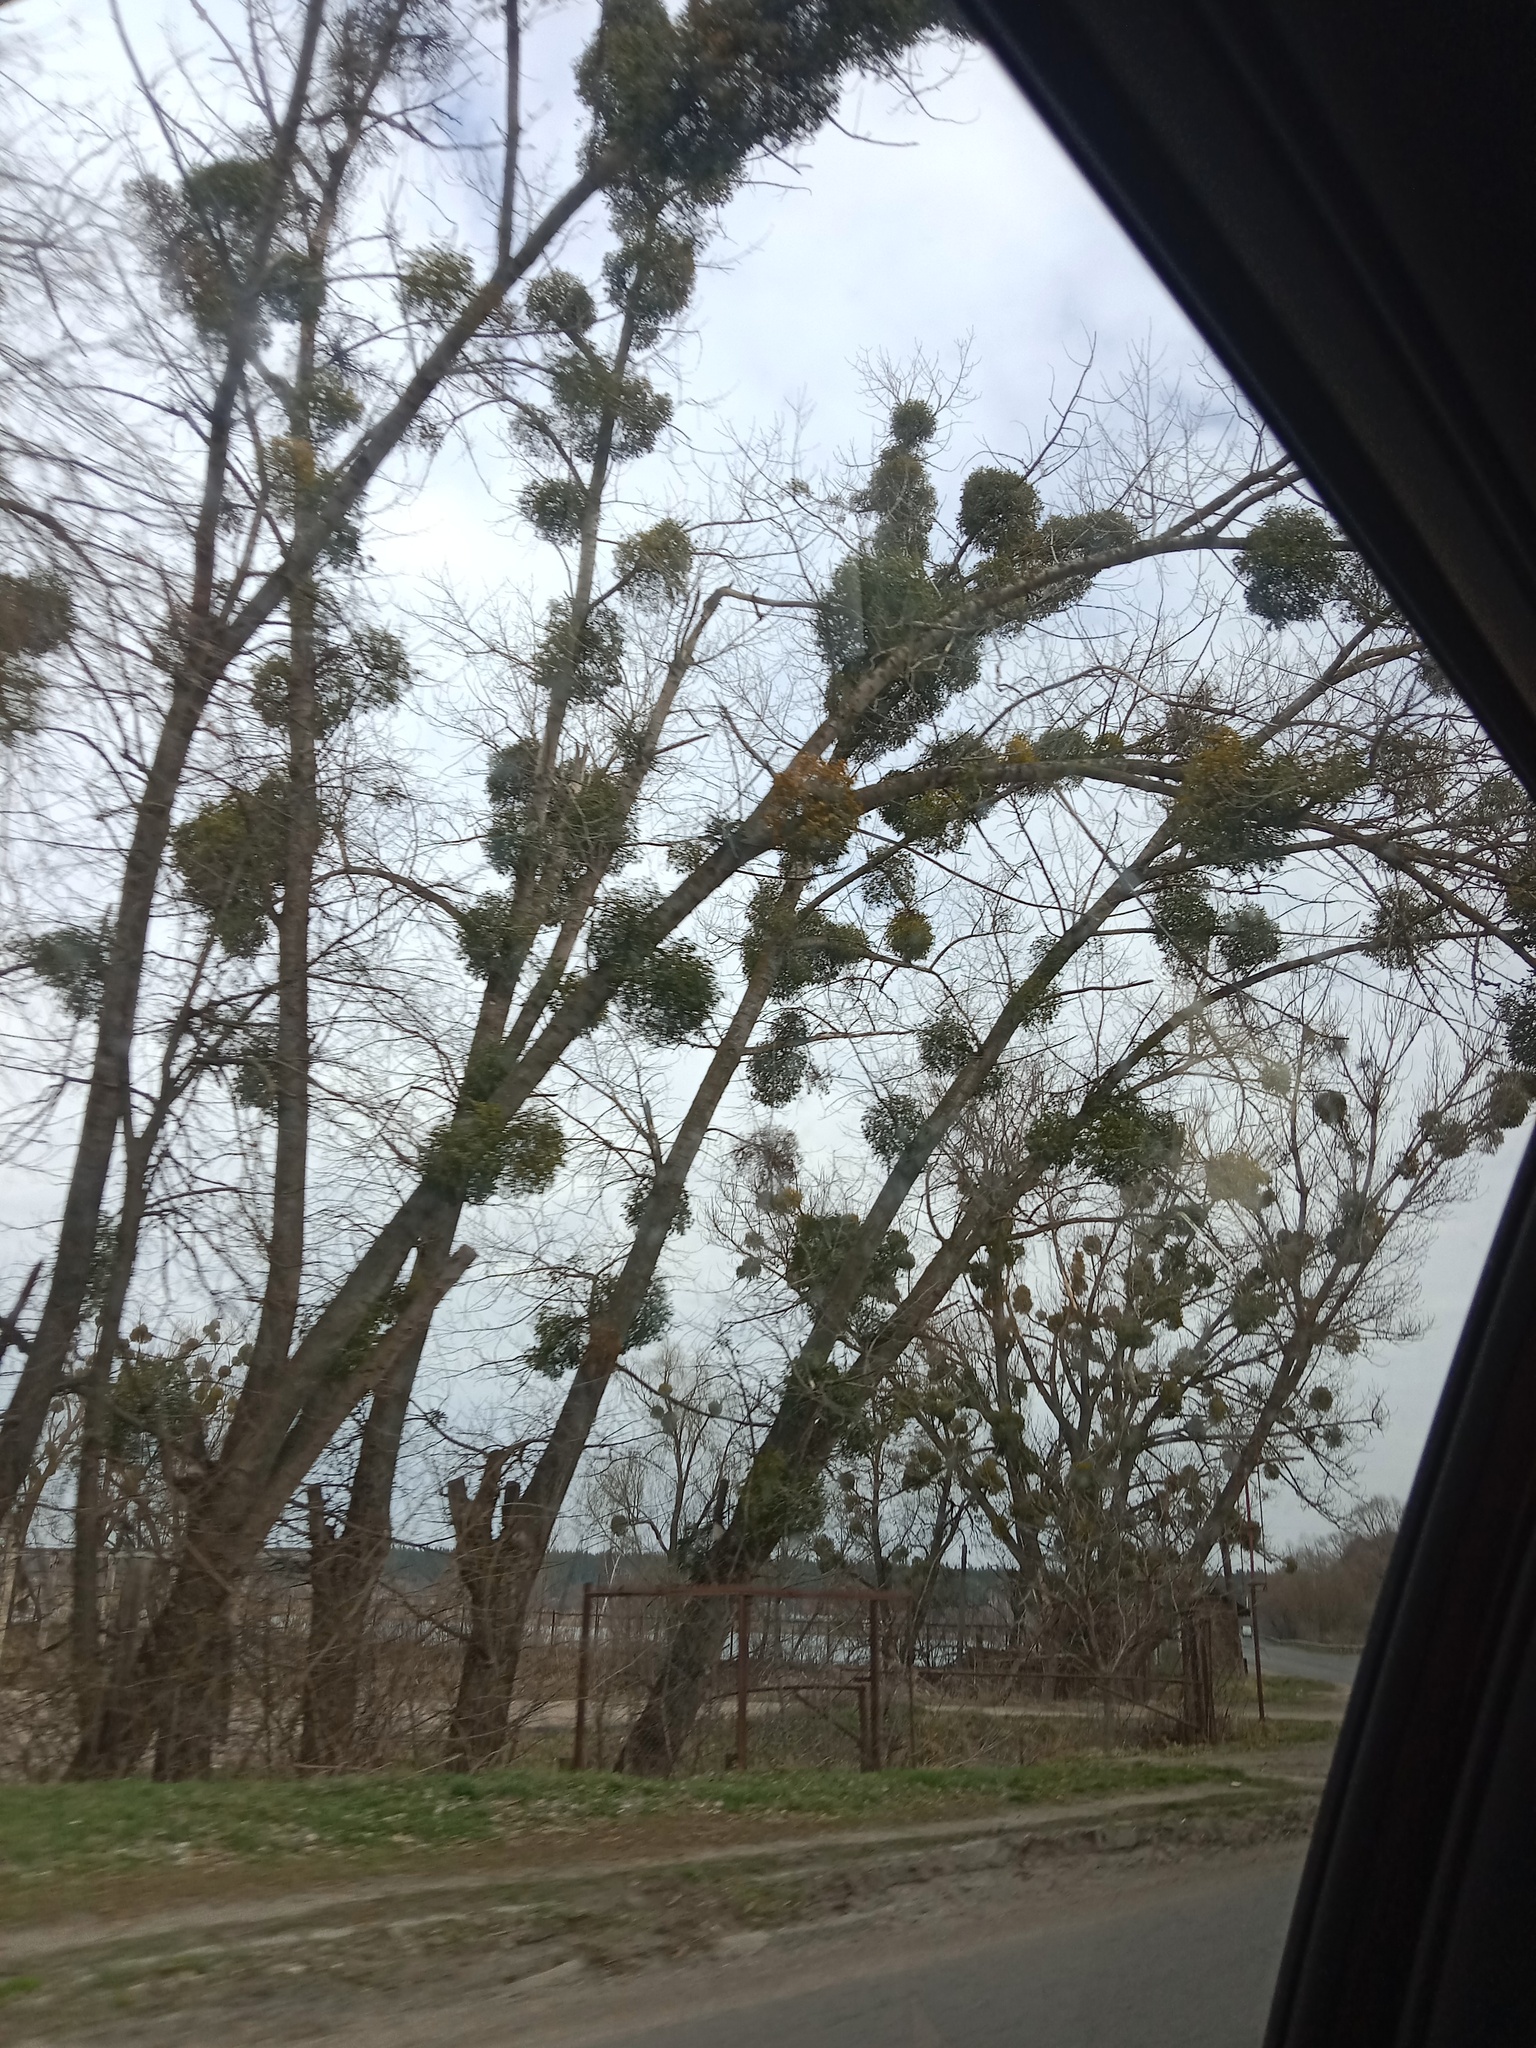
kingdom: Plantae
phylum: Tracheophyta
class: Magnoliopsida
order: Santalales
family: Viscaceae
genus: Viscum
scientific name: Viscum album
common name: Mistletoe
